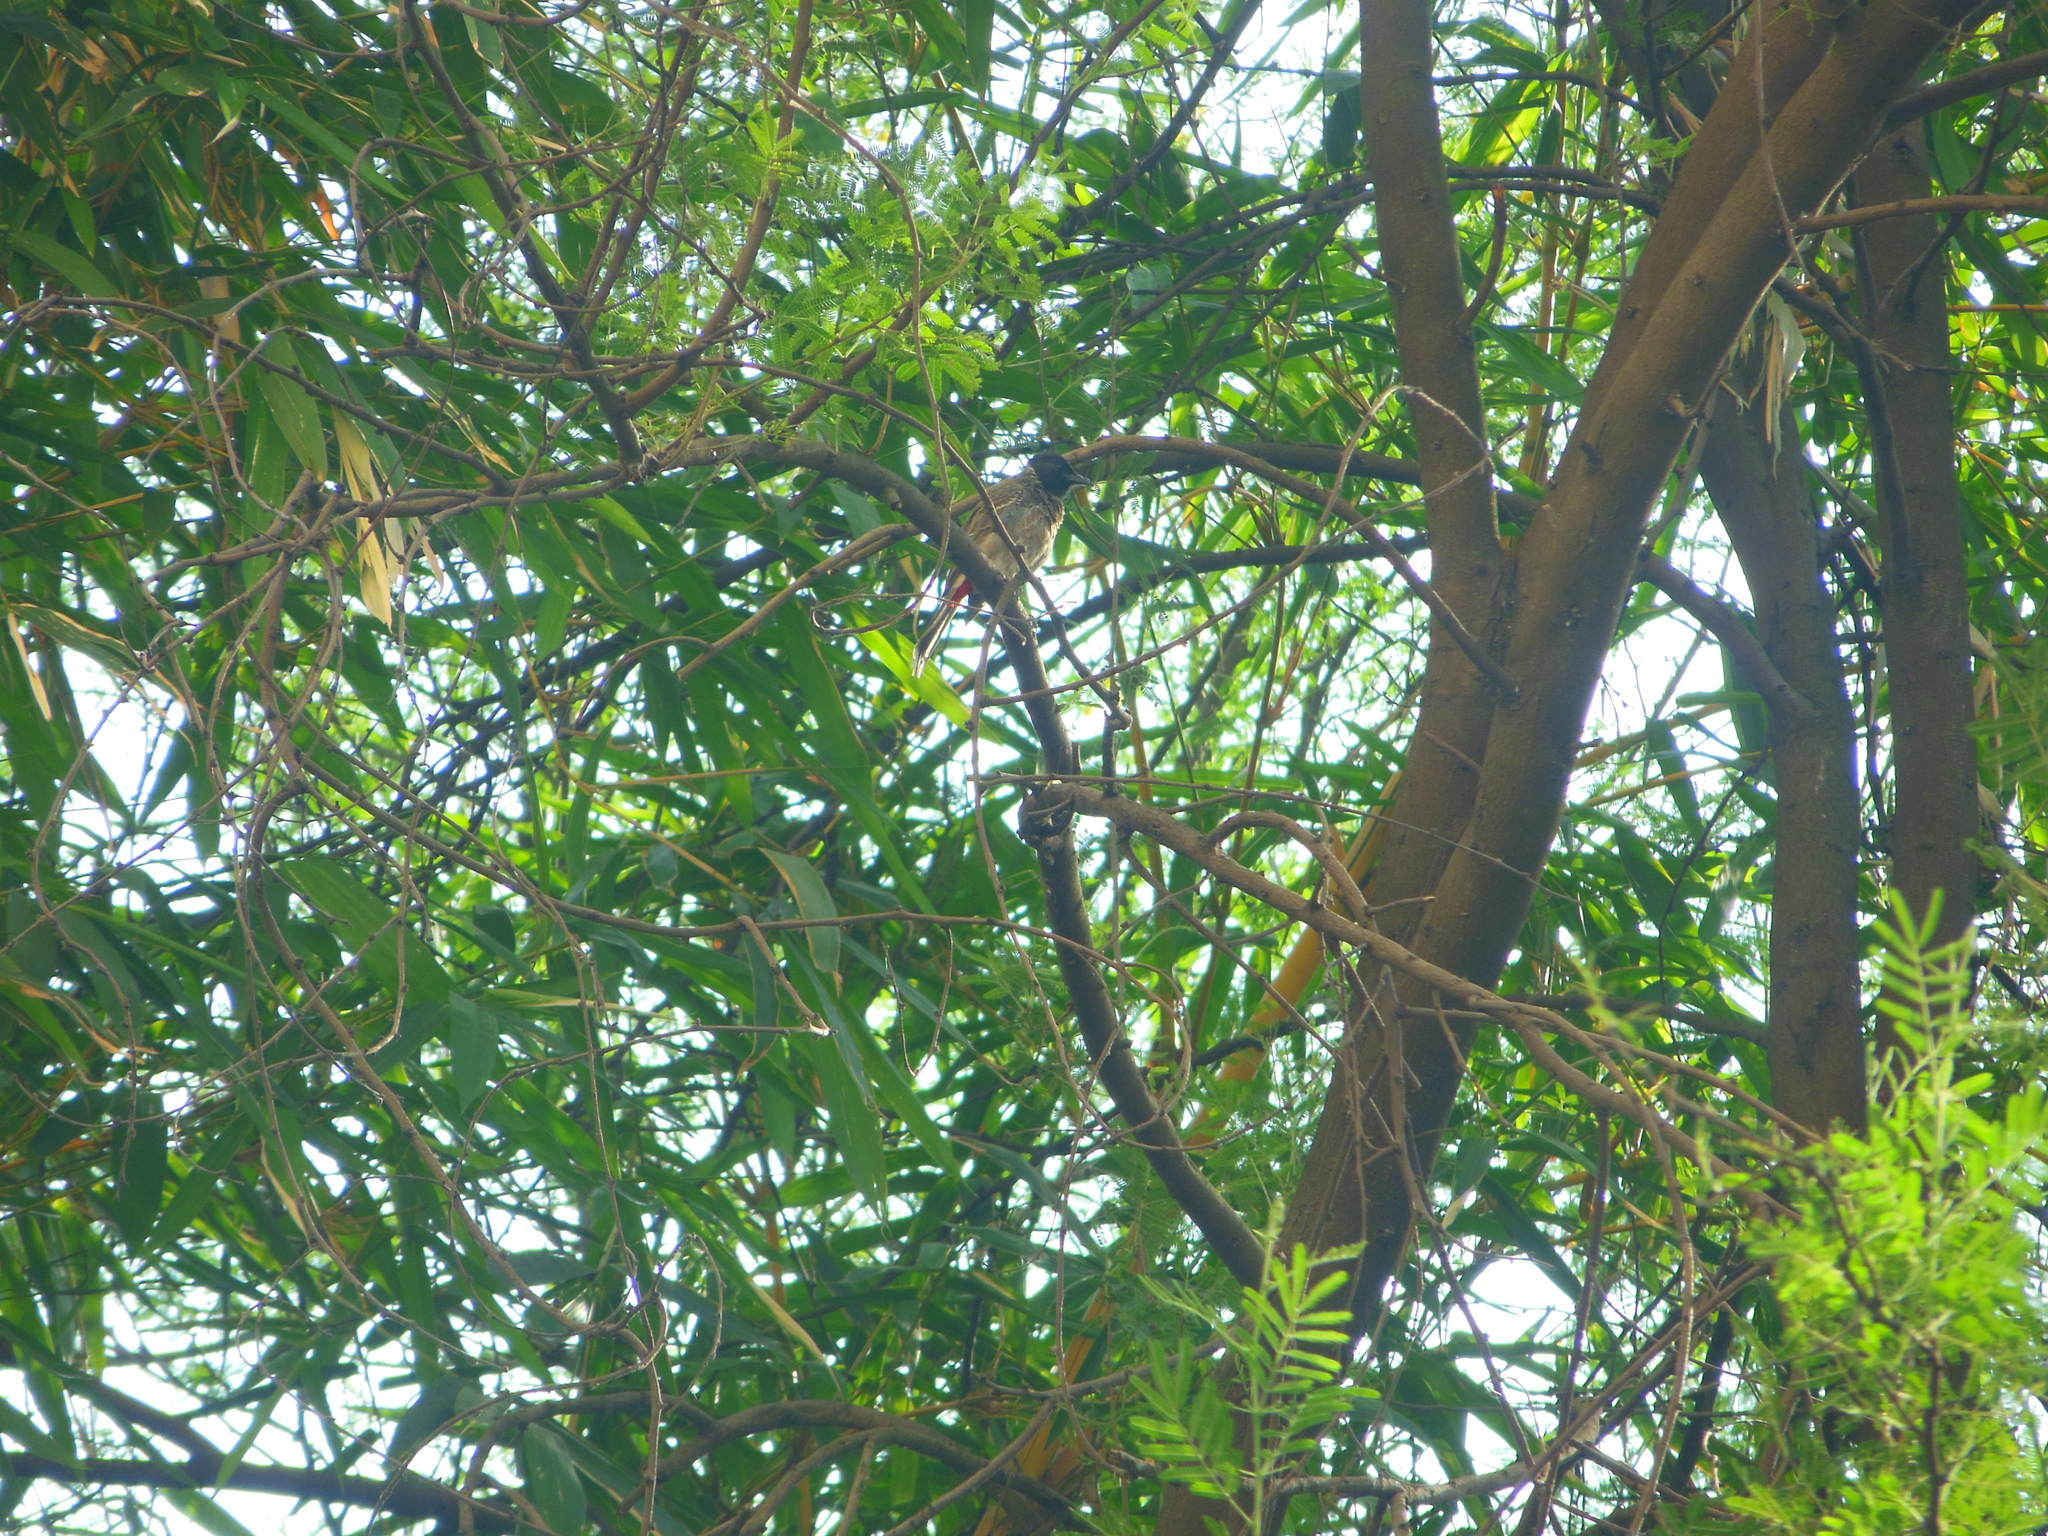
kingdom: Animalia
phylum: Chordata
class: Aves
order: Passeriformes
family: Pycnonotidae
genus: Pycnonotus
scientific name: Pycnonotus cafer
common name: Red-vented bulbul
